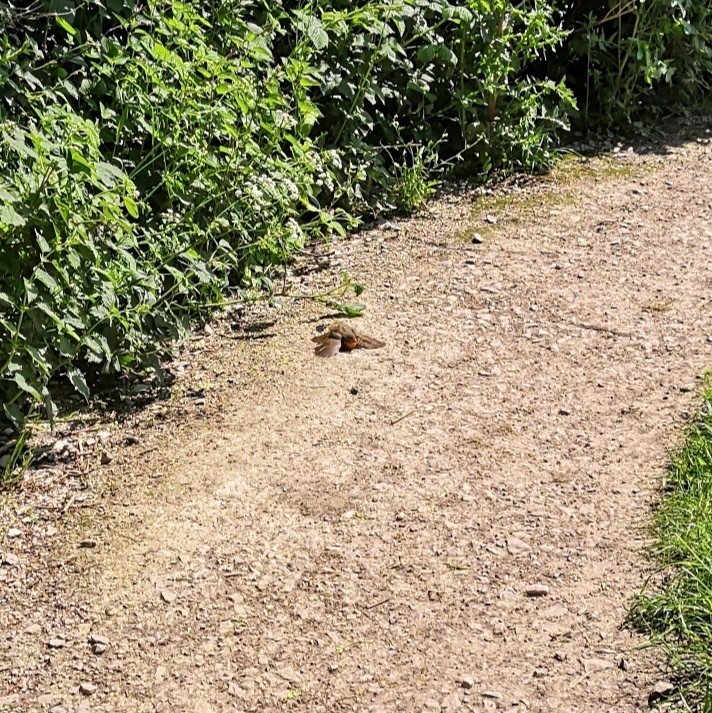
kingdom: Animalia
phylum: Chordata
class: Aves
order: Passeriformes
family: Muscicapidae
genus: Erithacus
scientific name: Erithacus rubecula
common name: European robin
